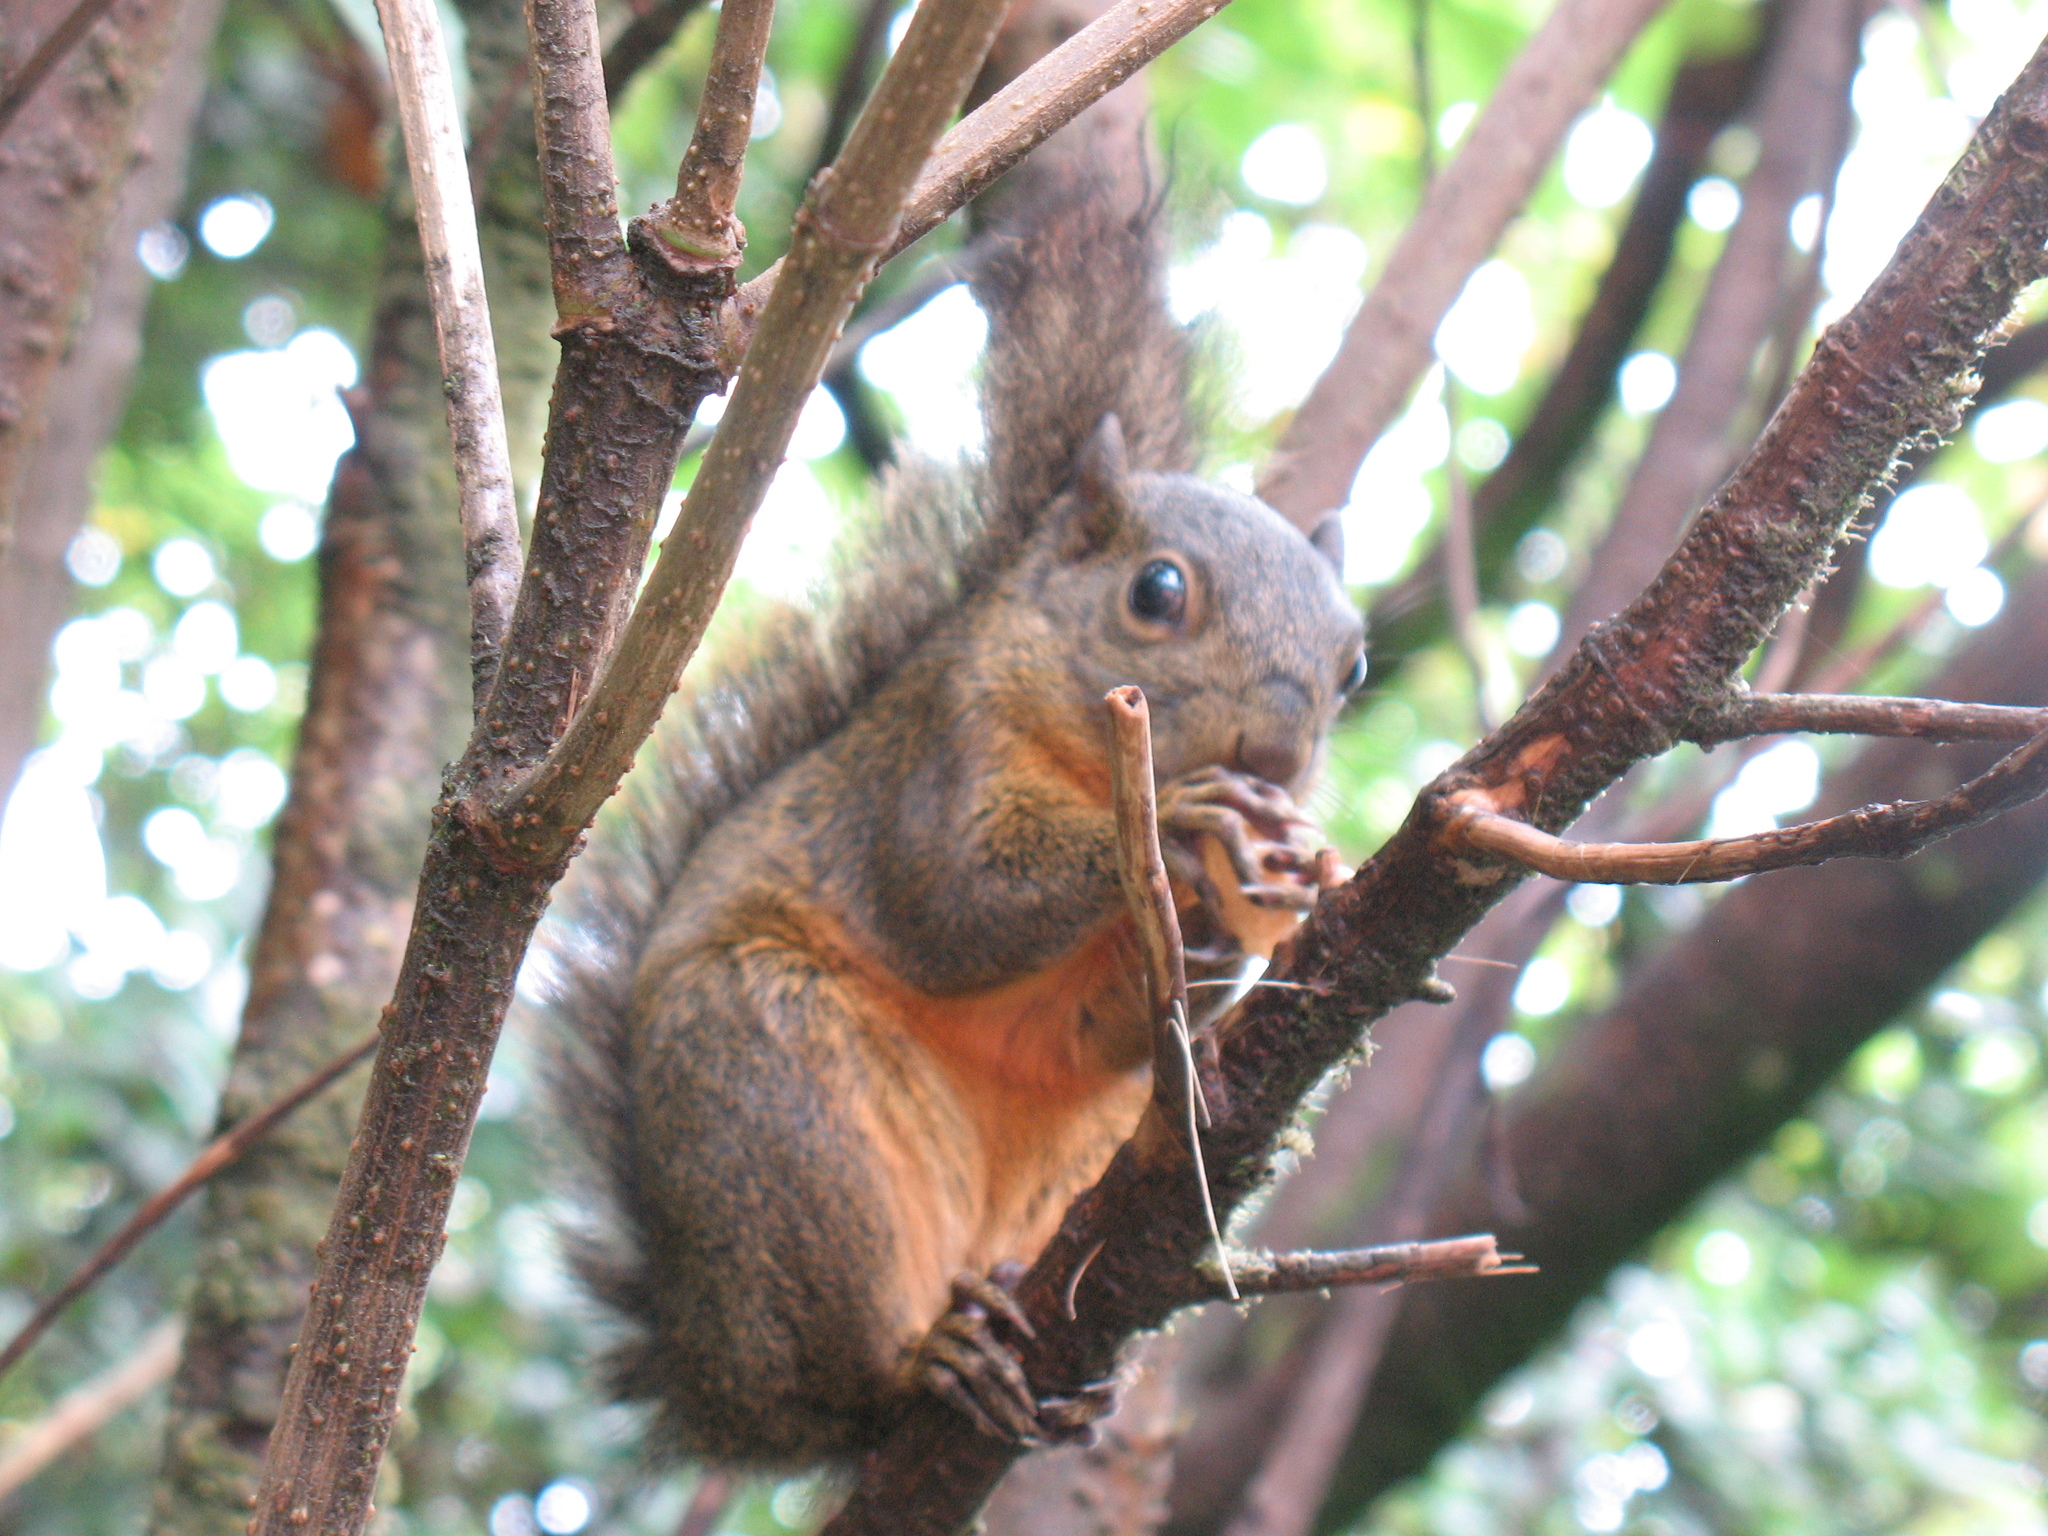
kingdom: Animalia
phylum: Chordata
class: Mammalia
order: Rodentia
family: Sciuridae
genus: Sciurus
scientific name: Sciurus granatensis
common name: Red-tailed squirrel
